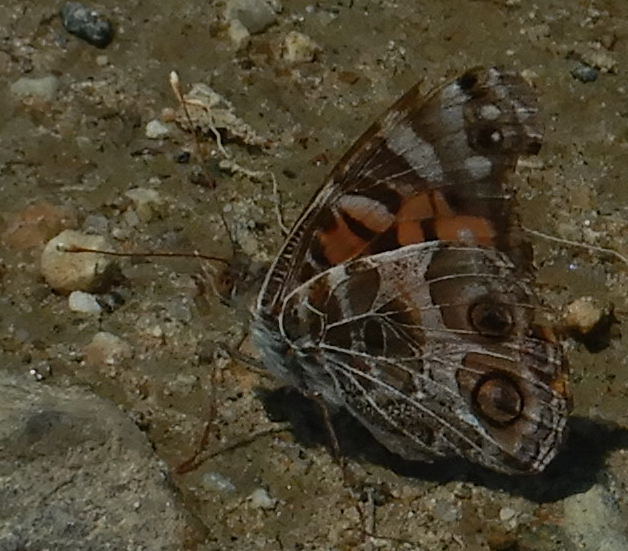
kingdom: Animalia
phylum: Arthropoda
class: Insecta
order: Lepidoptera
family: Nymphalidae
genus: Vanessa
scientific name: Vanessa virginiensis
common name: American lady
